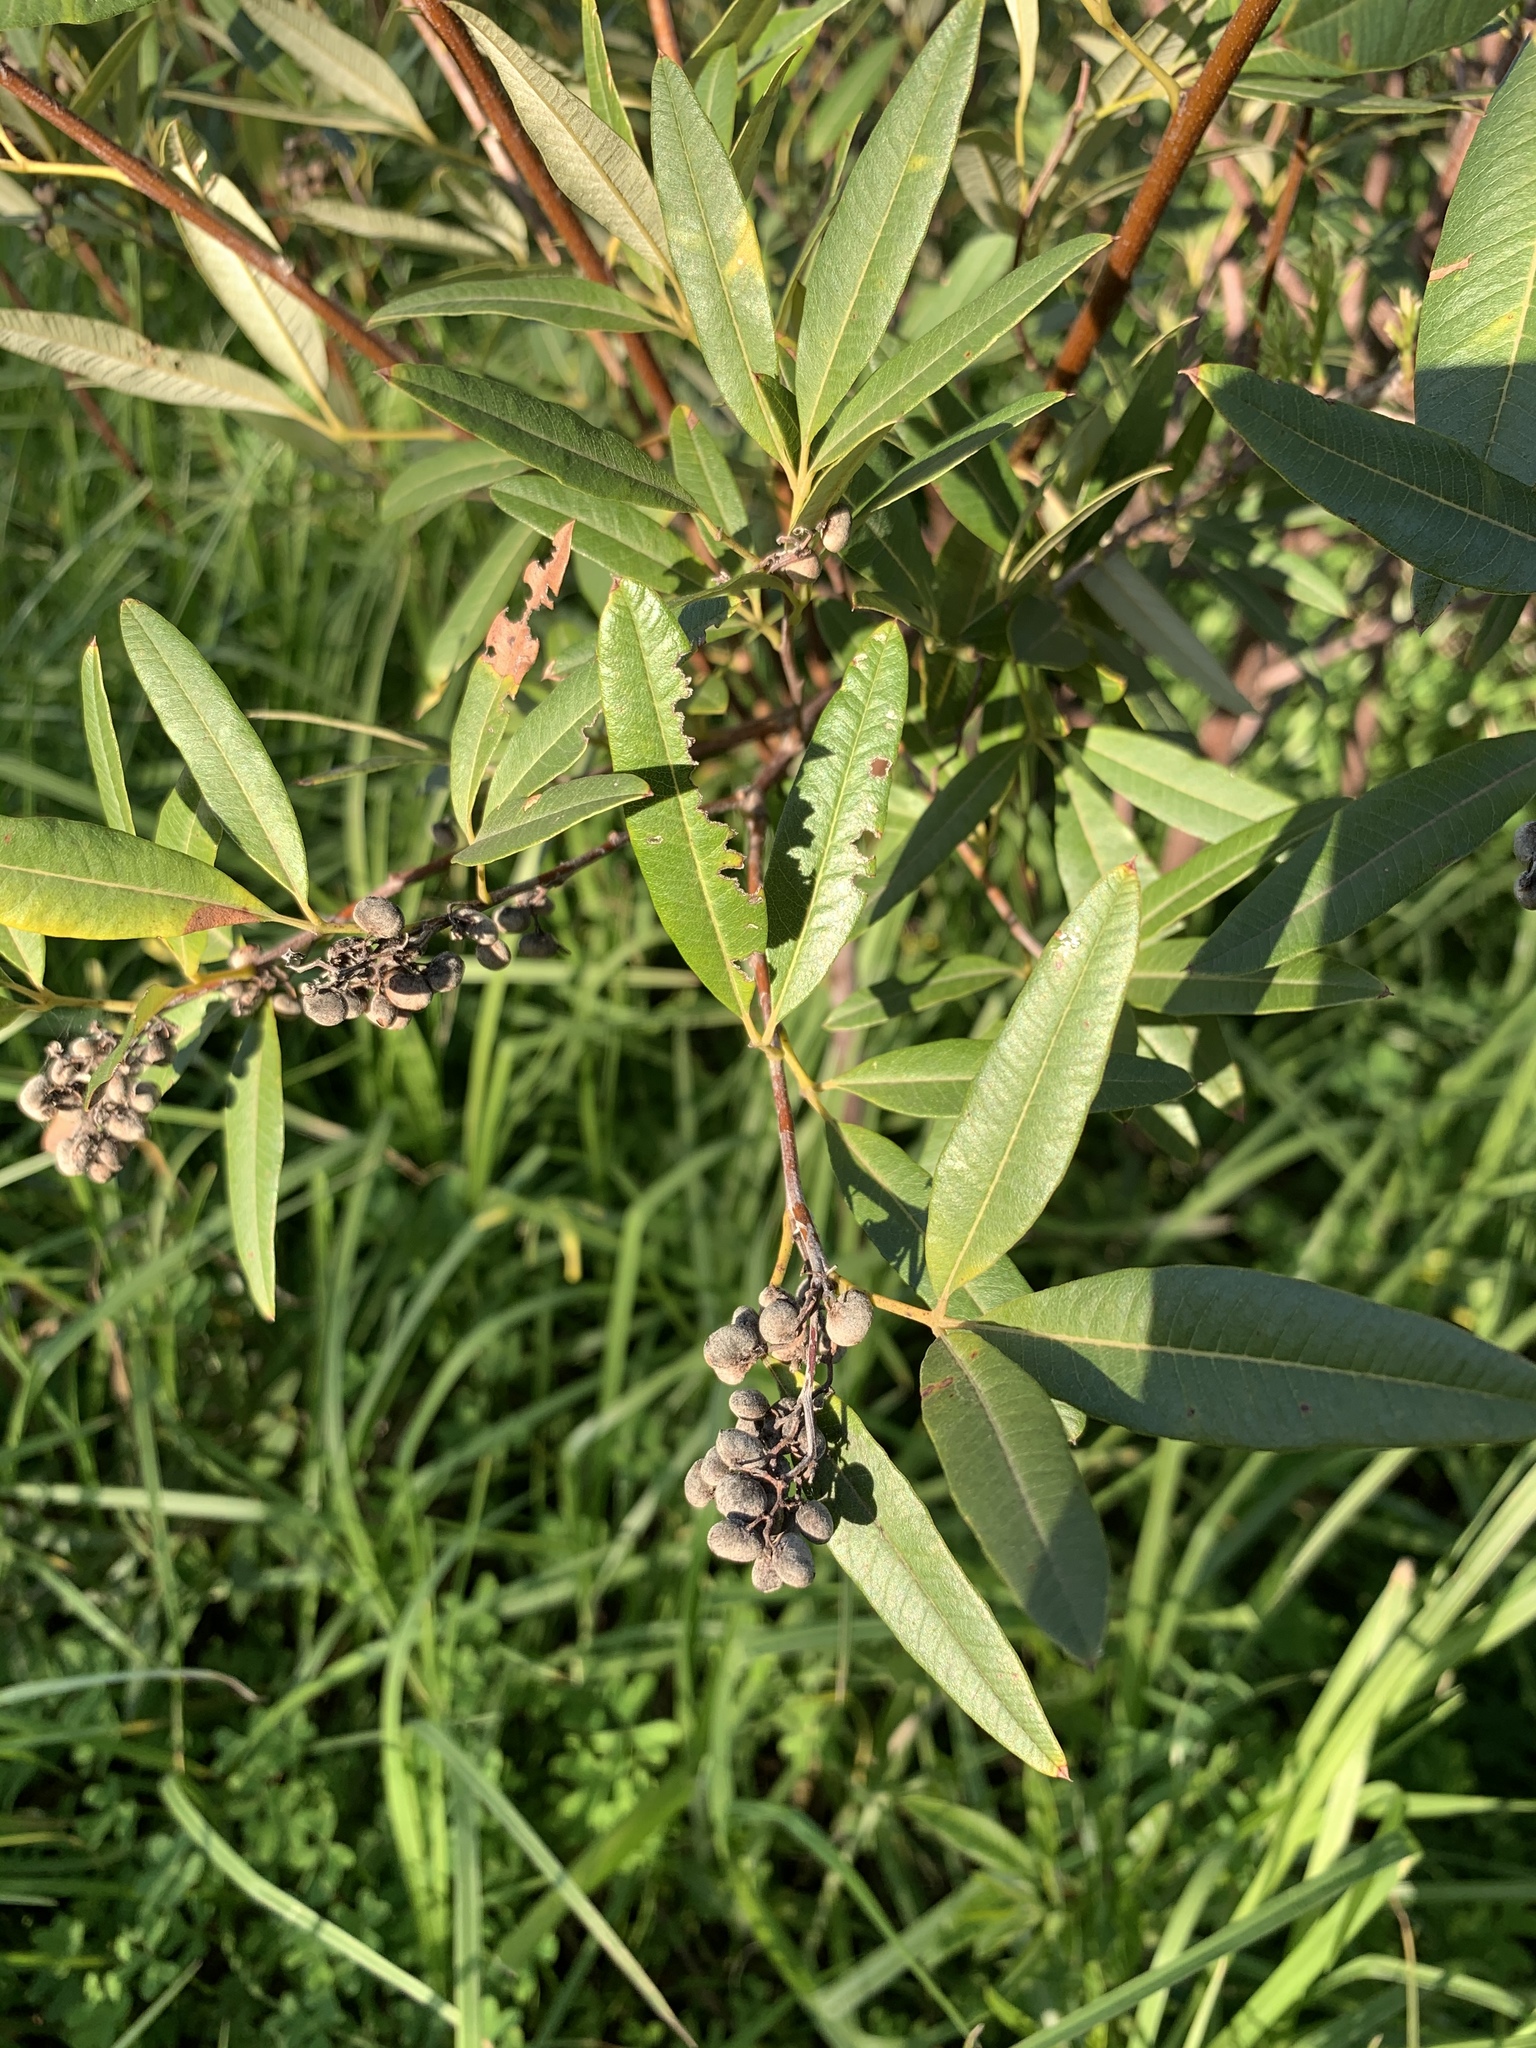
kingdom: Plantae
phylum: Tracheophyta
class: Magnoliopsida
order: Sapindales
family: Anacardiaceae
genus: Searsia
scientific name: Searsia angustifolia
